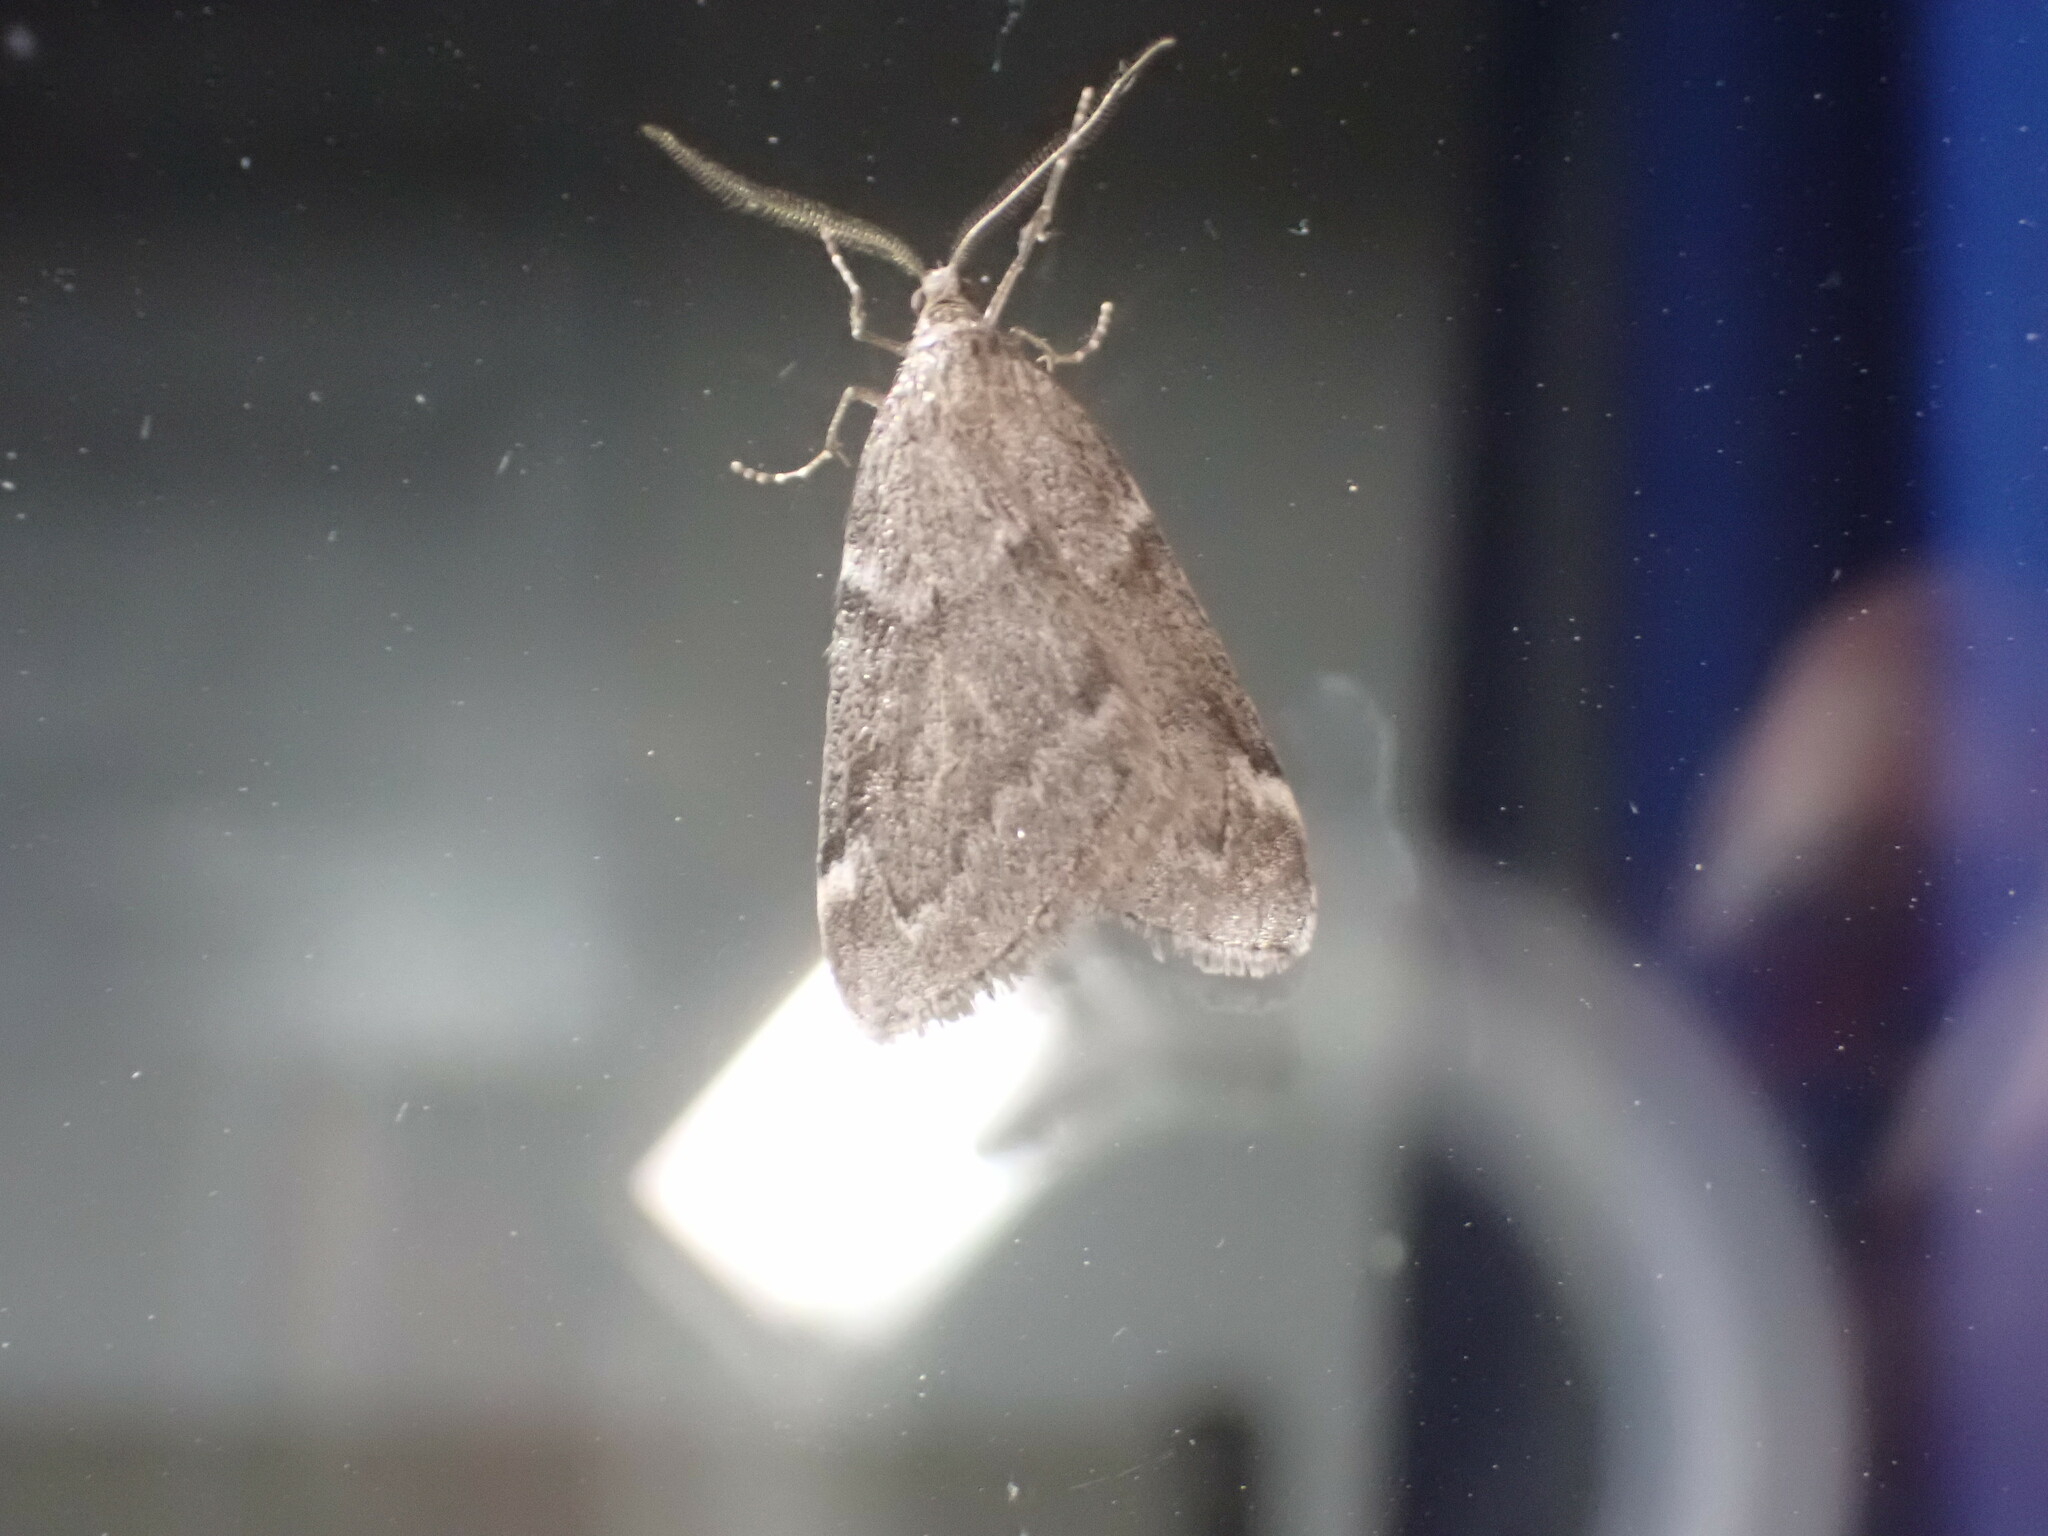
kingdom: Animalia
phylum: Arthropoda
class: Insecta
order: Lepidoptera
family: Geometridae
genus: Alsophila
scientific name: Alsophila pometaria
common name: Fall cankerworm
